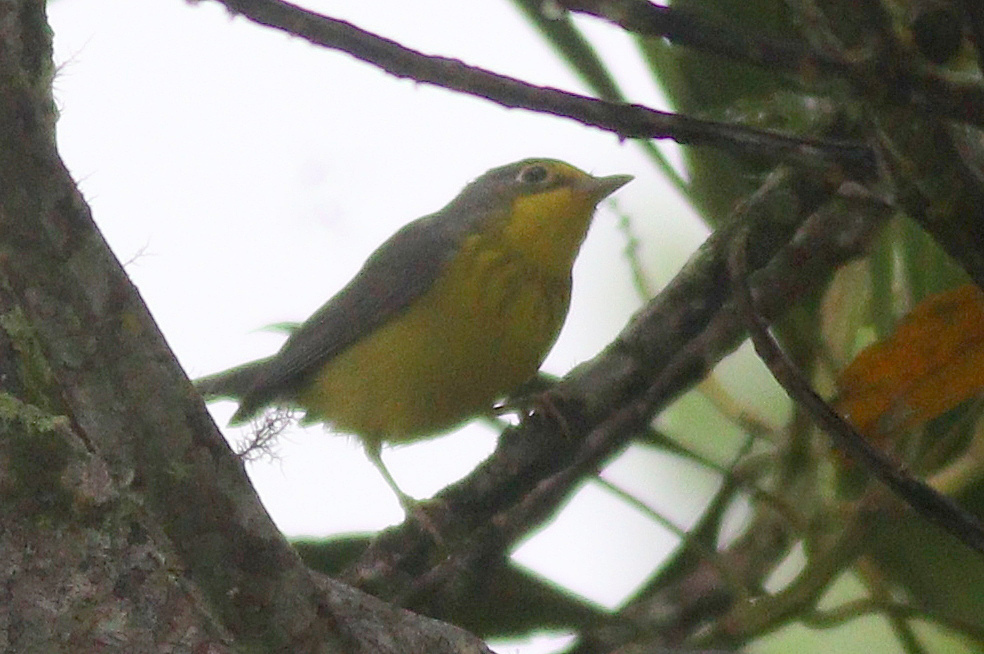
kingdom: Animalia
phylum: Chordata
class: Aves
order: Passeriformes
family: Parulidae
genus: Cardellina
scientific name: Cardellina canadensis
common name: Canada warbler
